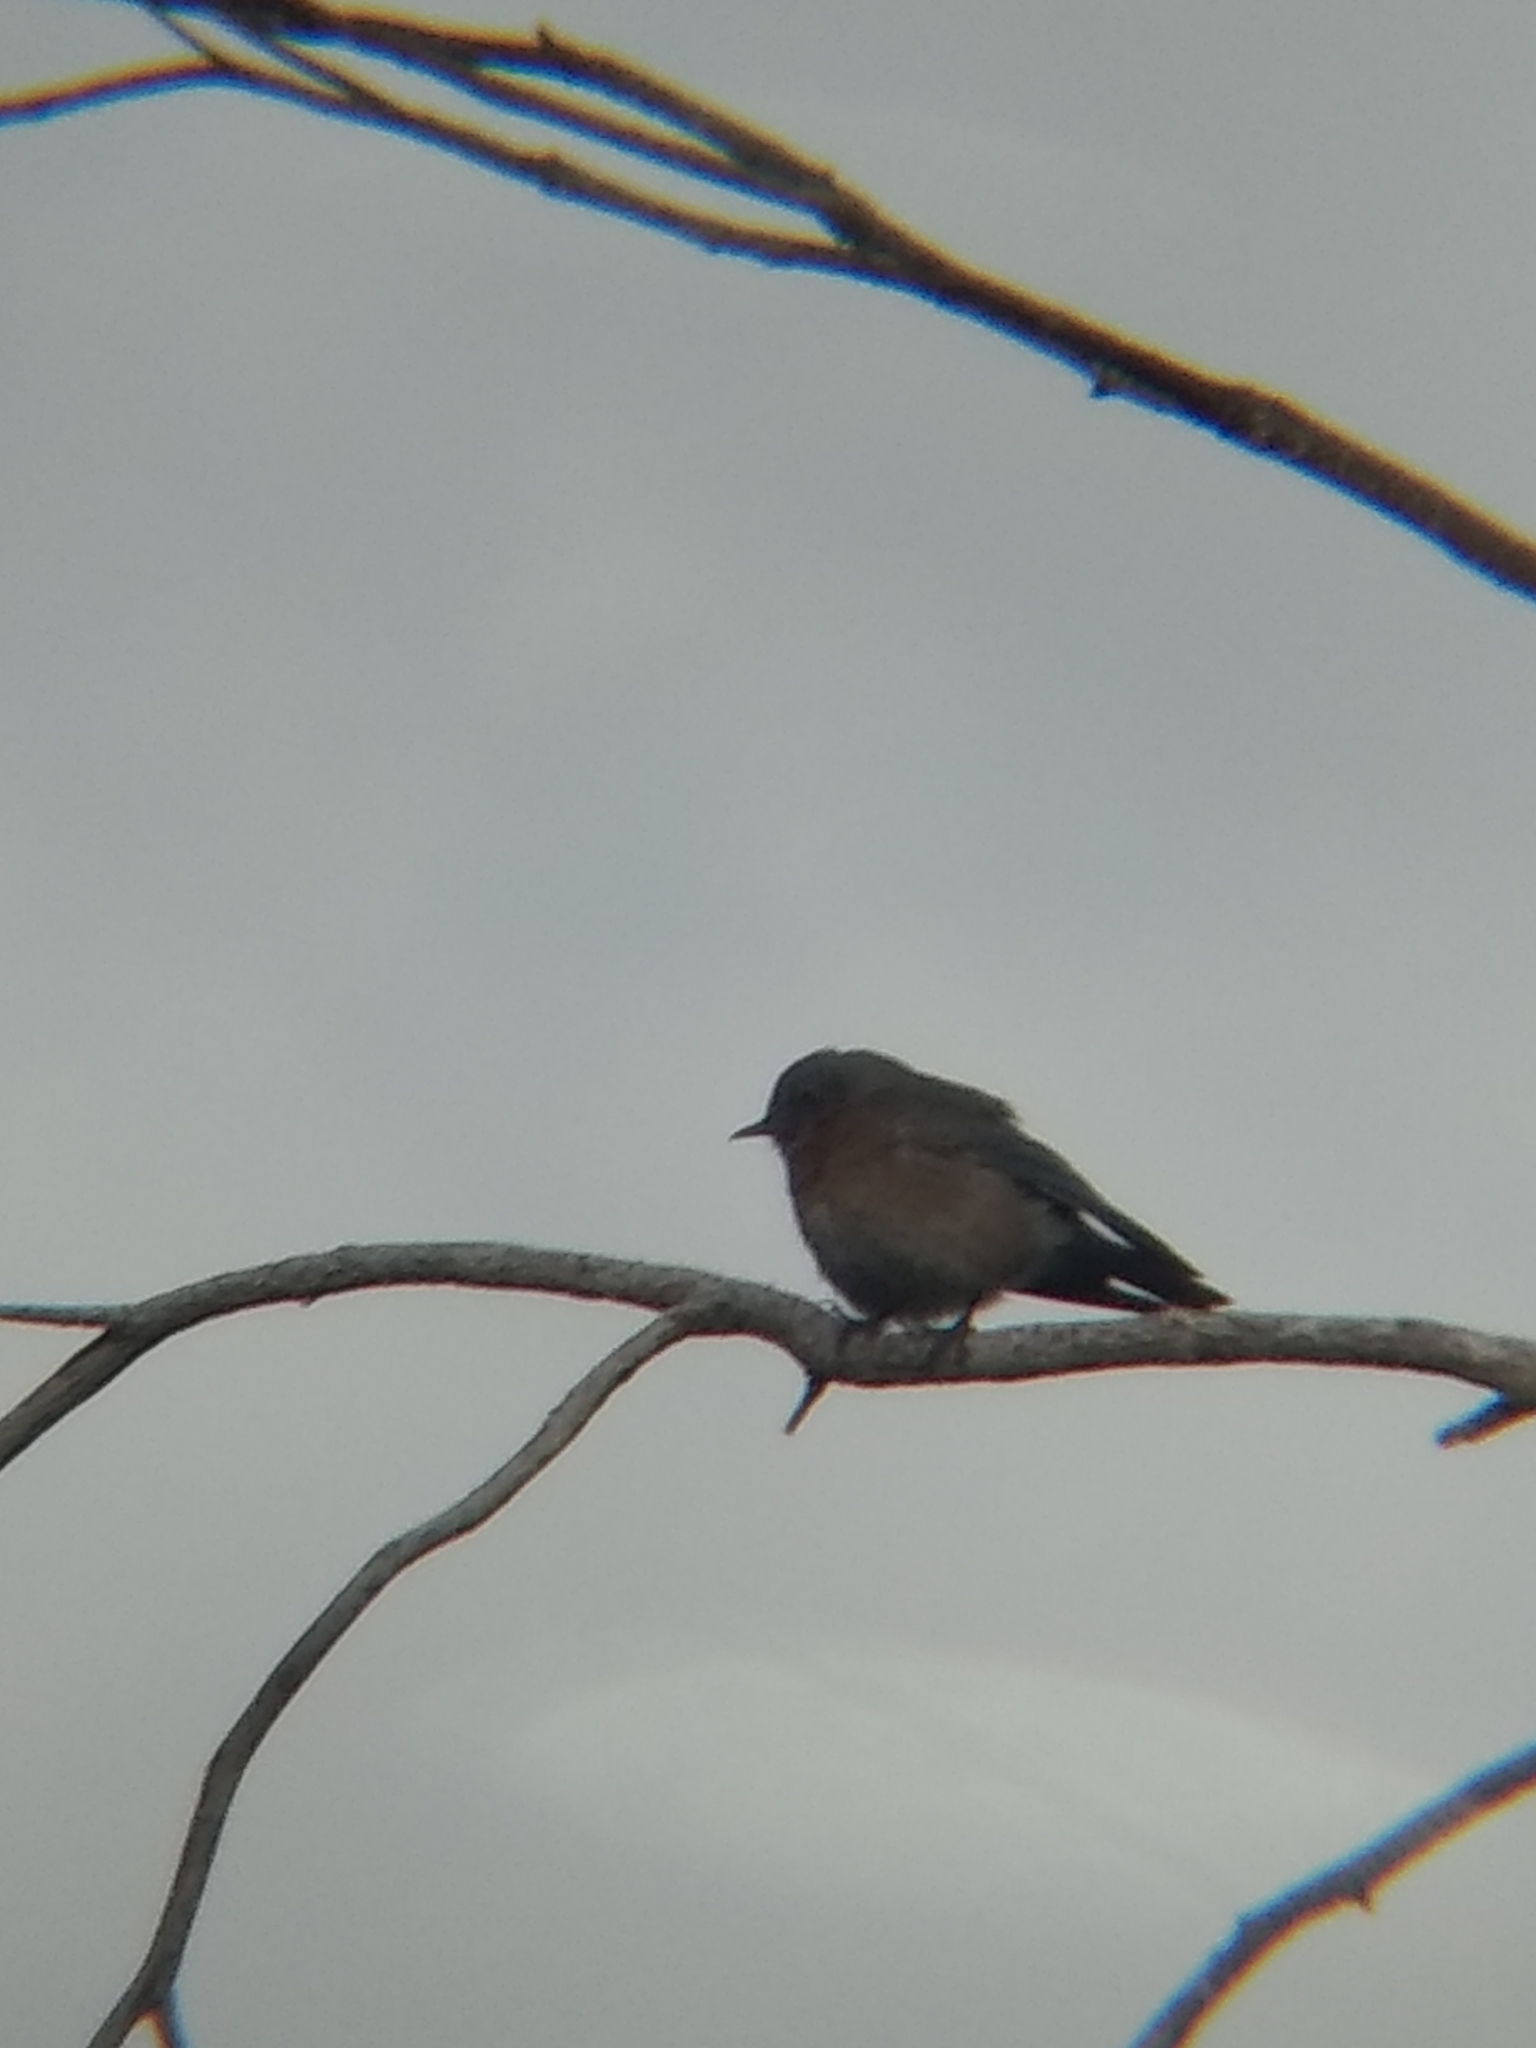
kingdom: Animalia
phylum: Chordata
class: Aves
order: Passeriformes
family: Turdidae
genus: Sialia
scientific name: Sialia mexicana
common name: Western bluebird
